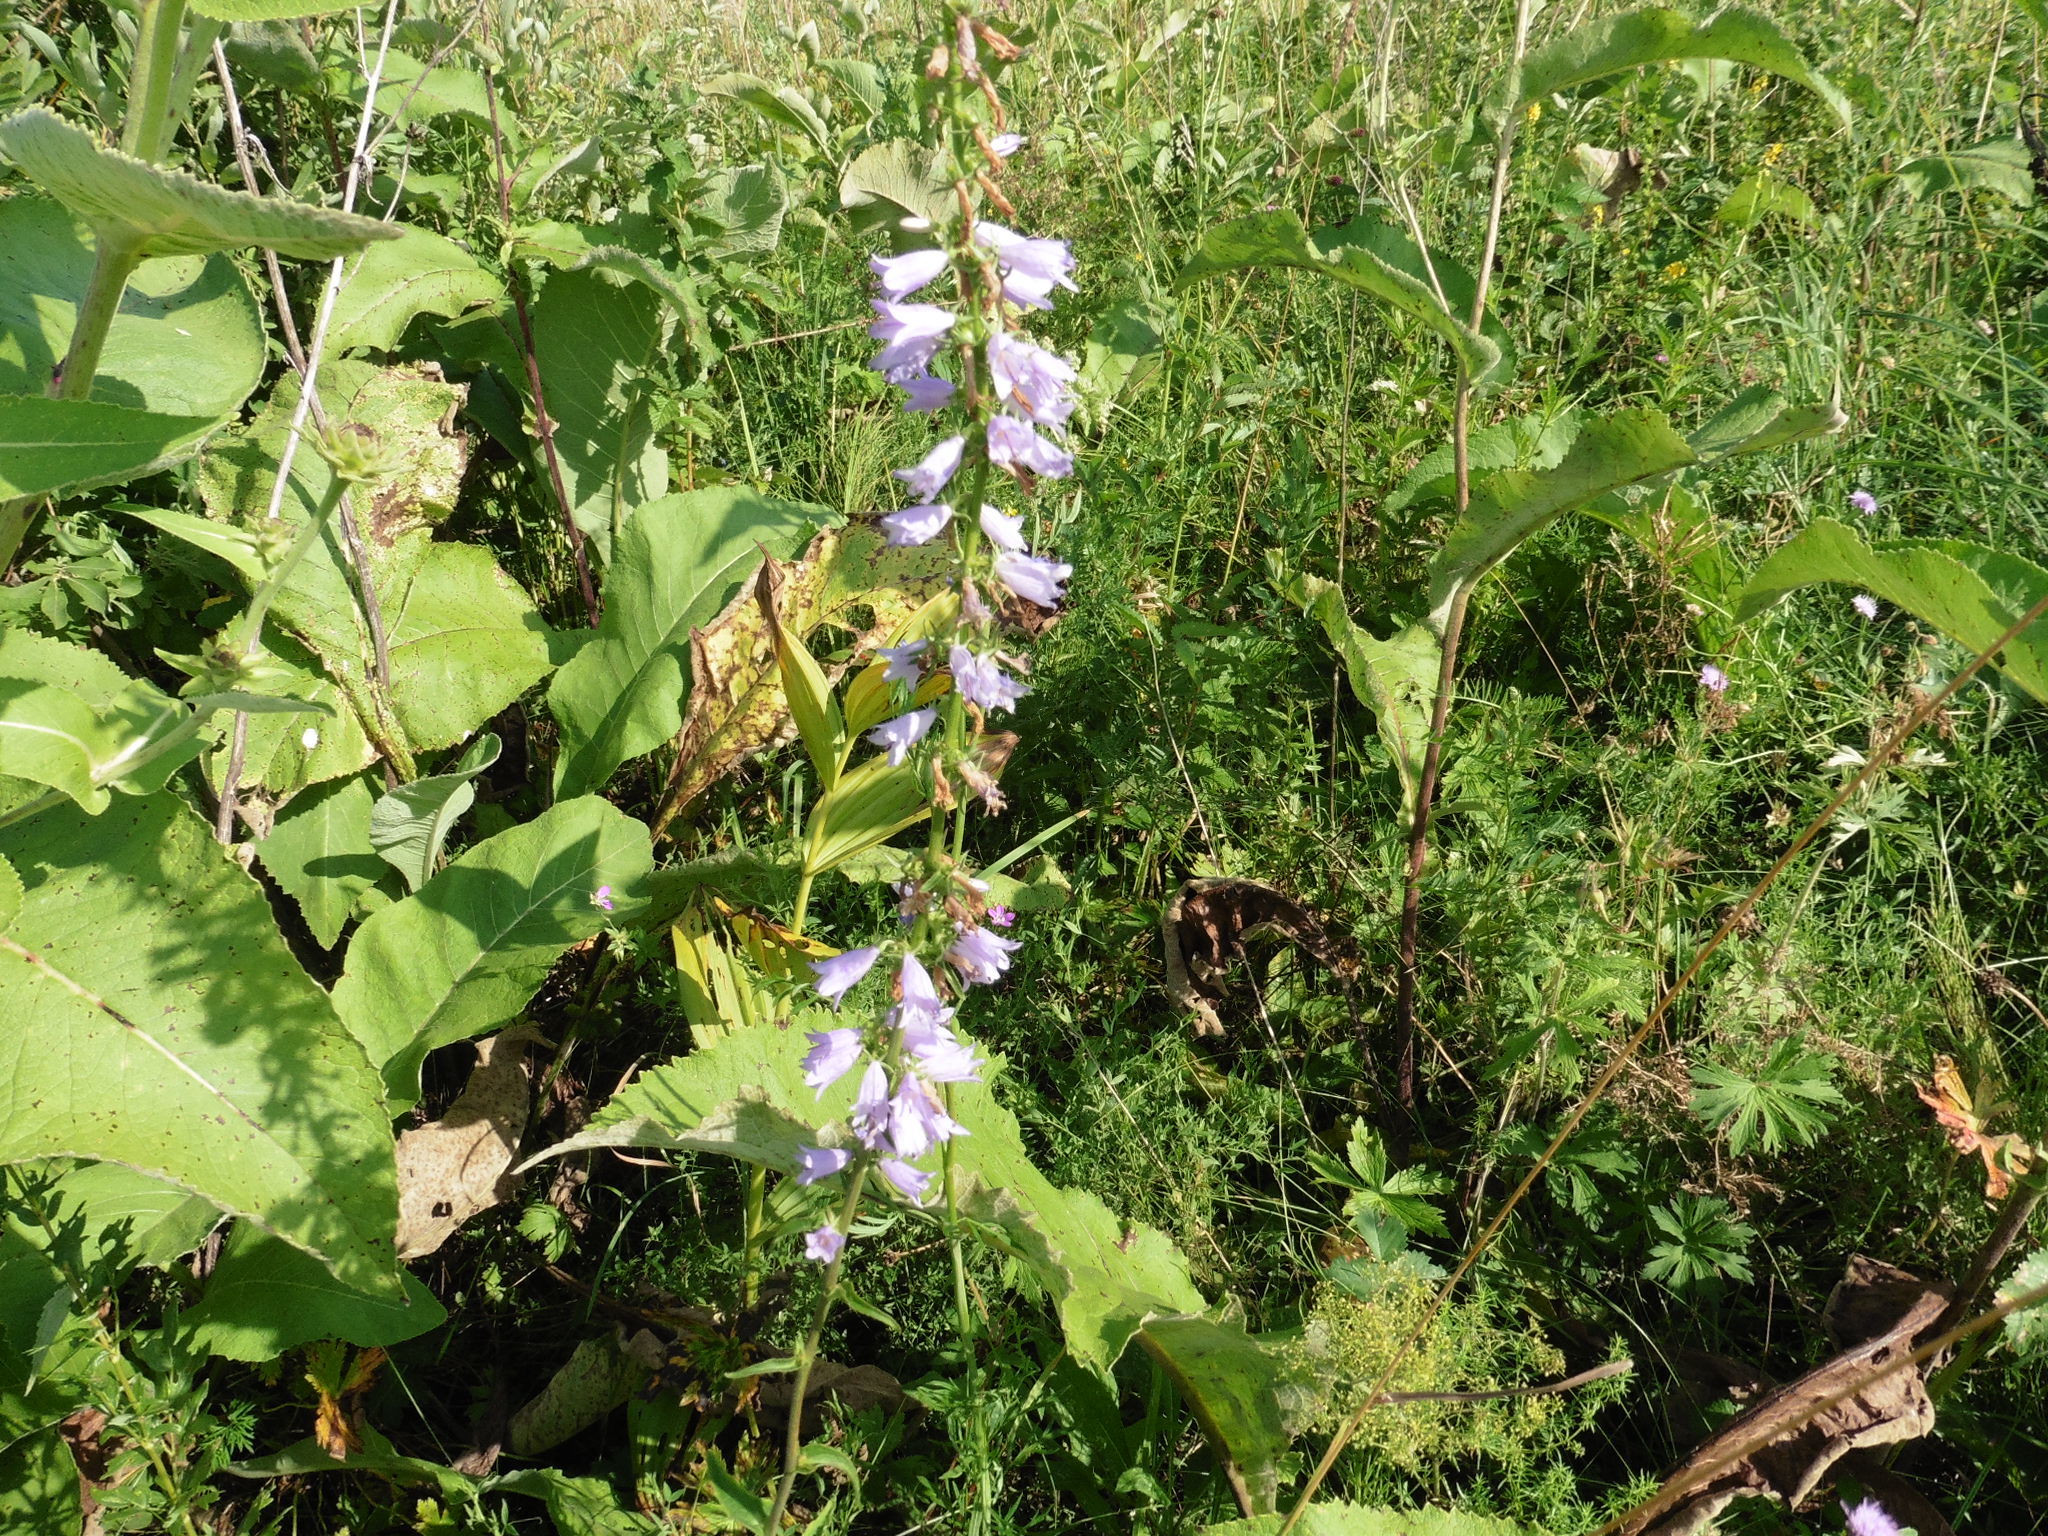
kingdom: Plantae
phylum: Tracheophyta
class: Magnoliopsida
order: Asterales
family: Campanulaceae
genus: Campanula
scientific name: Campanula bononiensis
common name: Pale bellflower
